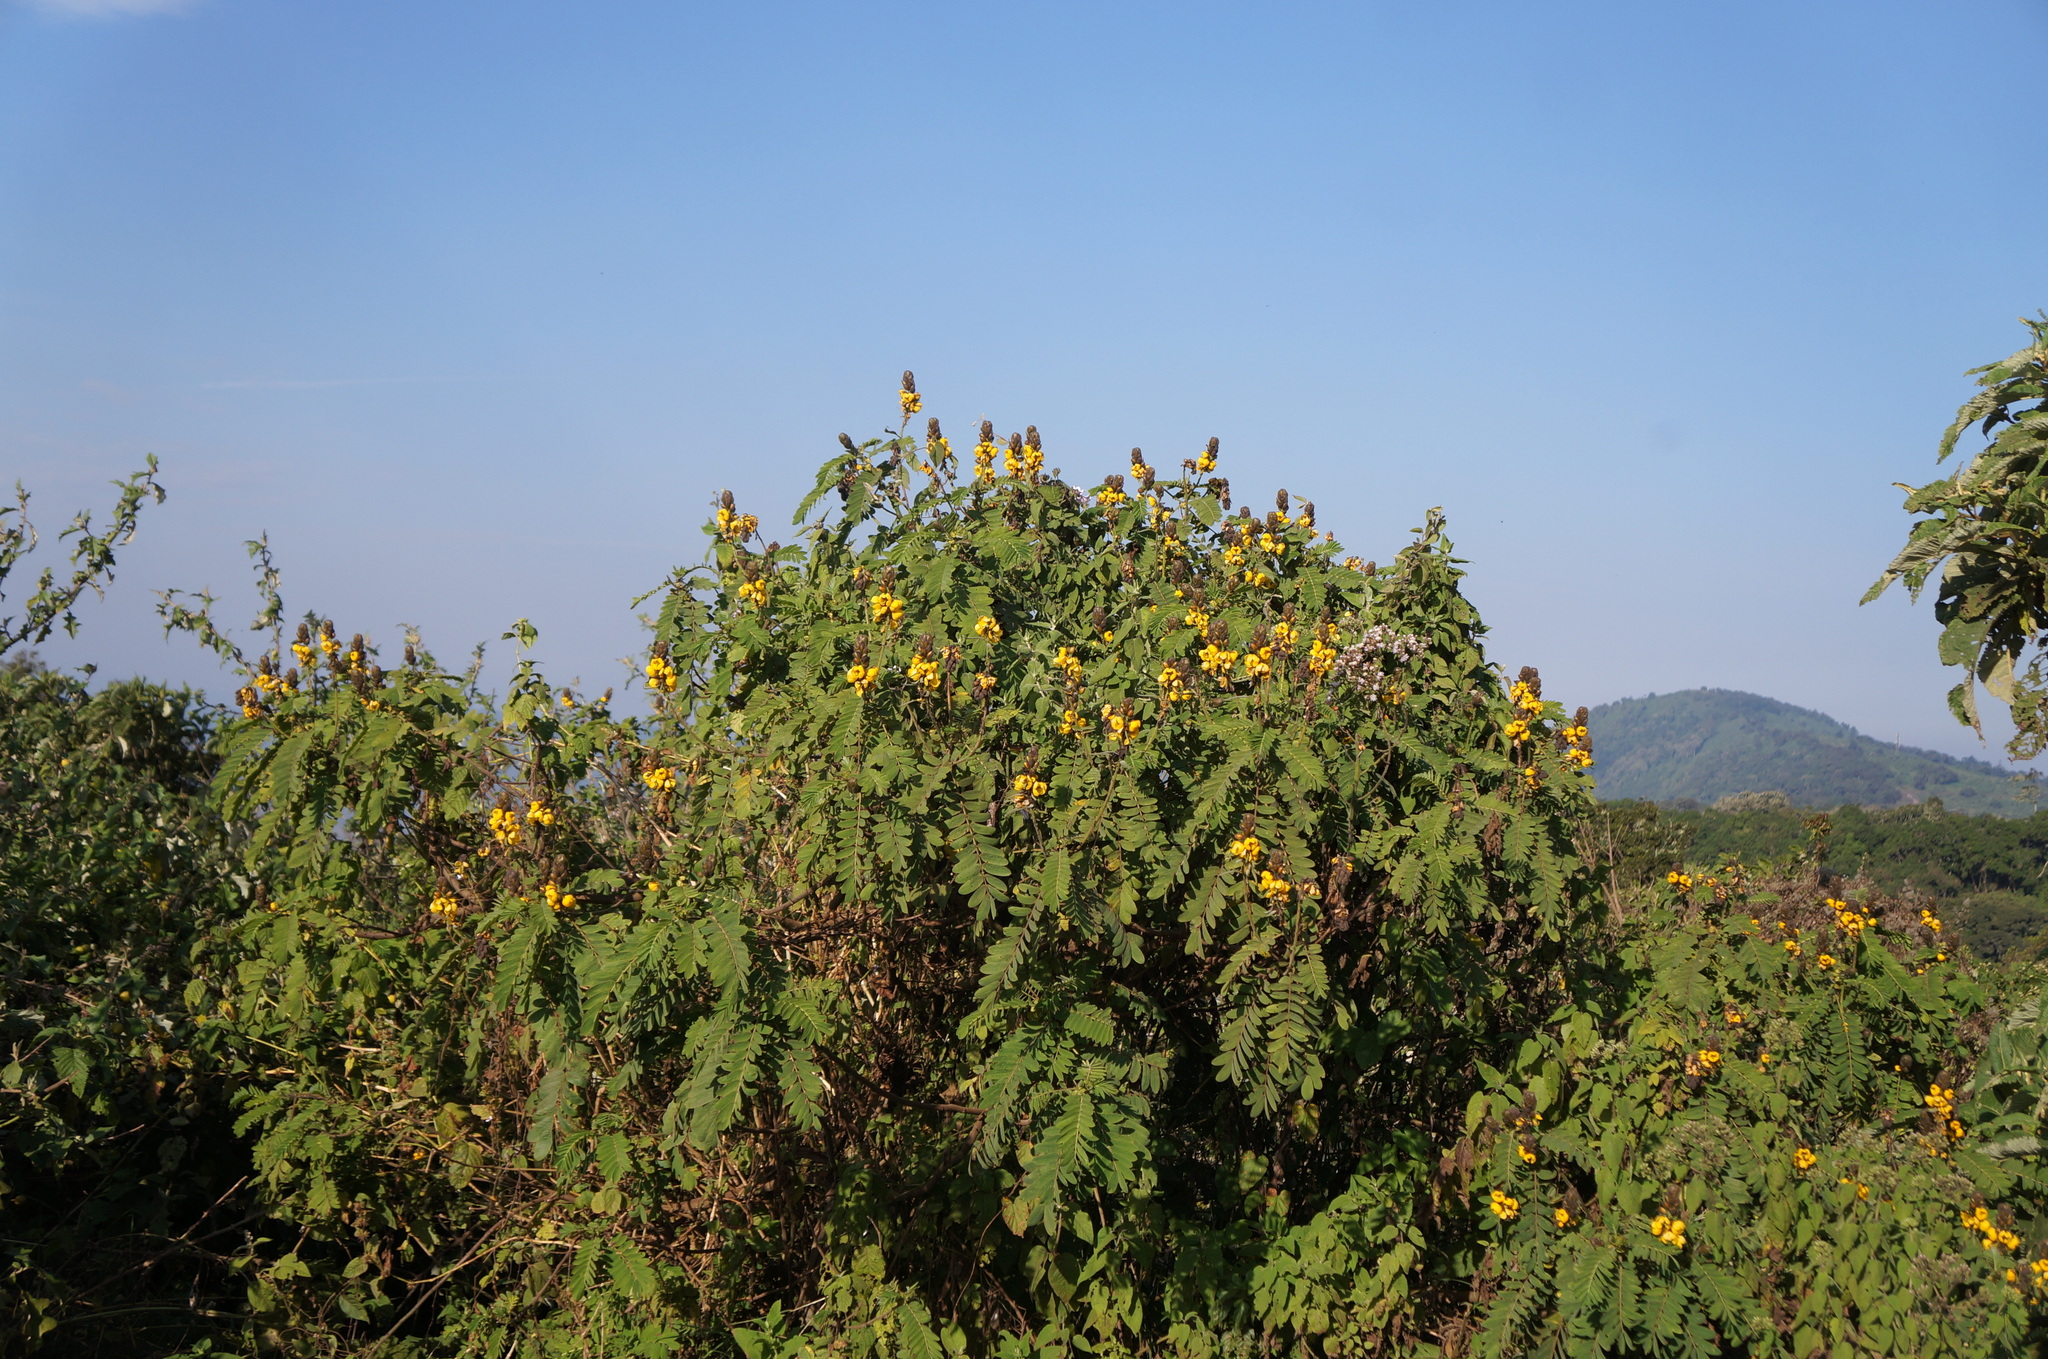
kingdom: Plantae
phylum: Tracheophyta
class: Magnoliopsida
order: Fabales
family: Fabaceae
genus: Senna
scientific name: Senna didymobotrya
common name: African senna
